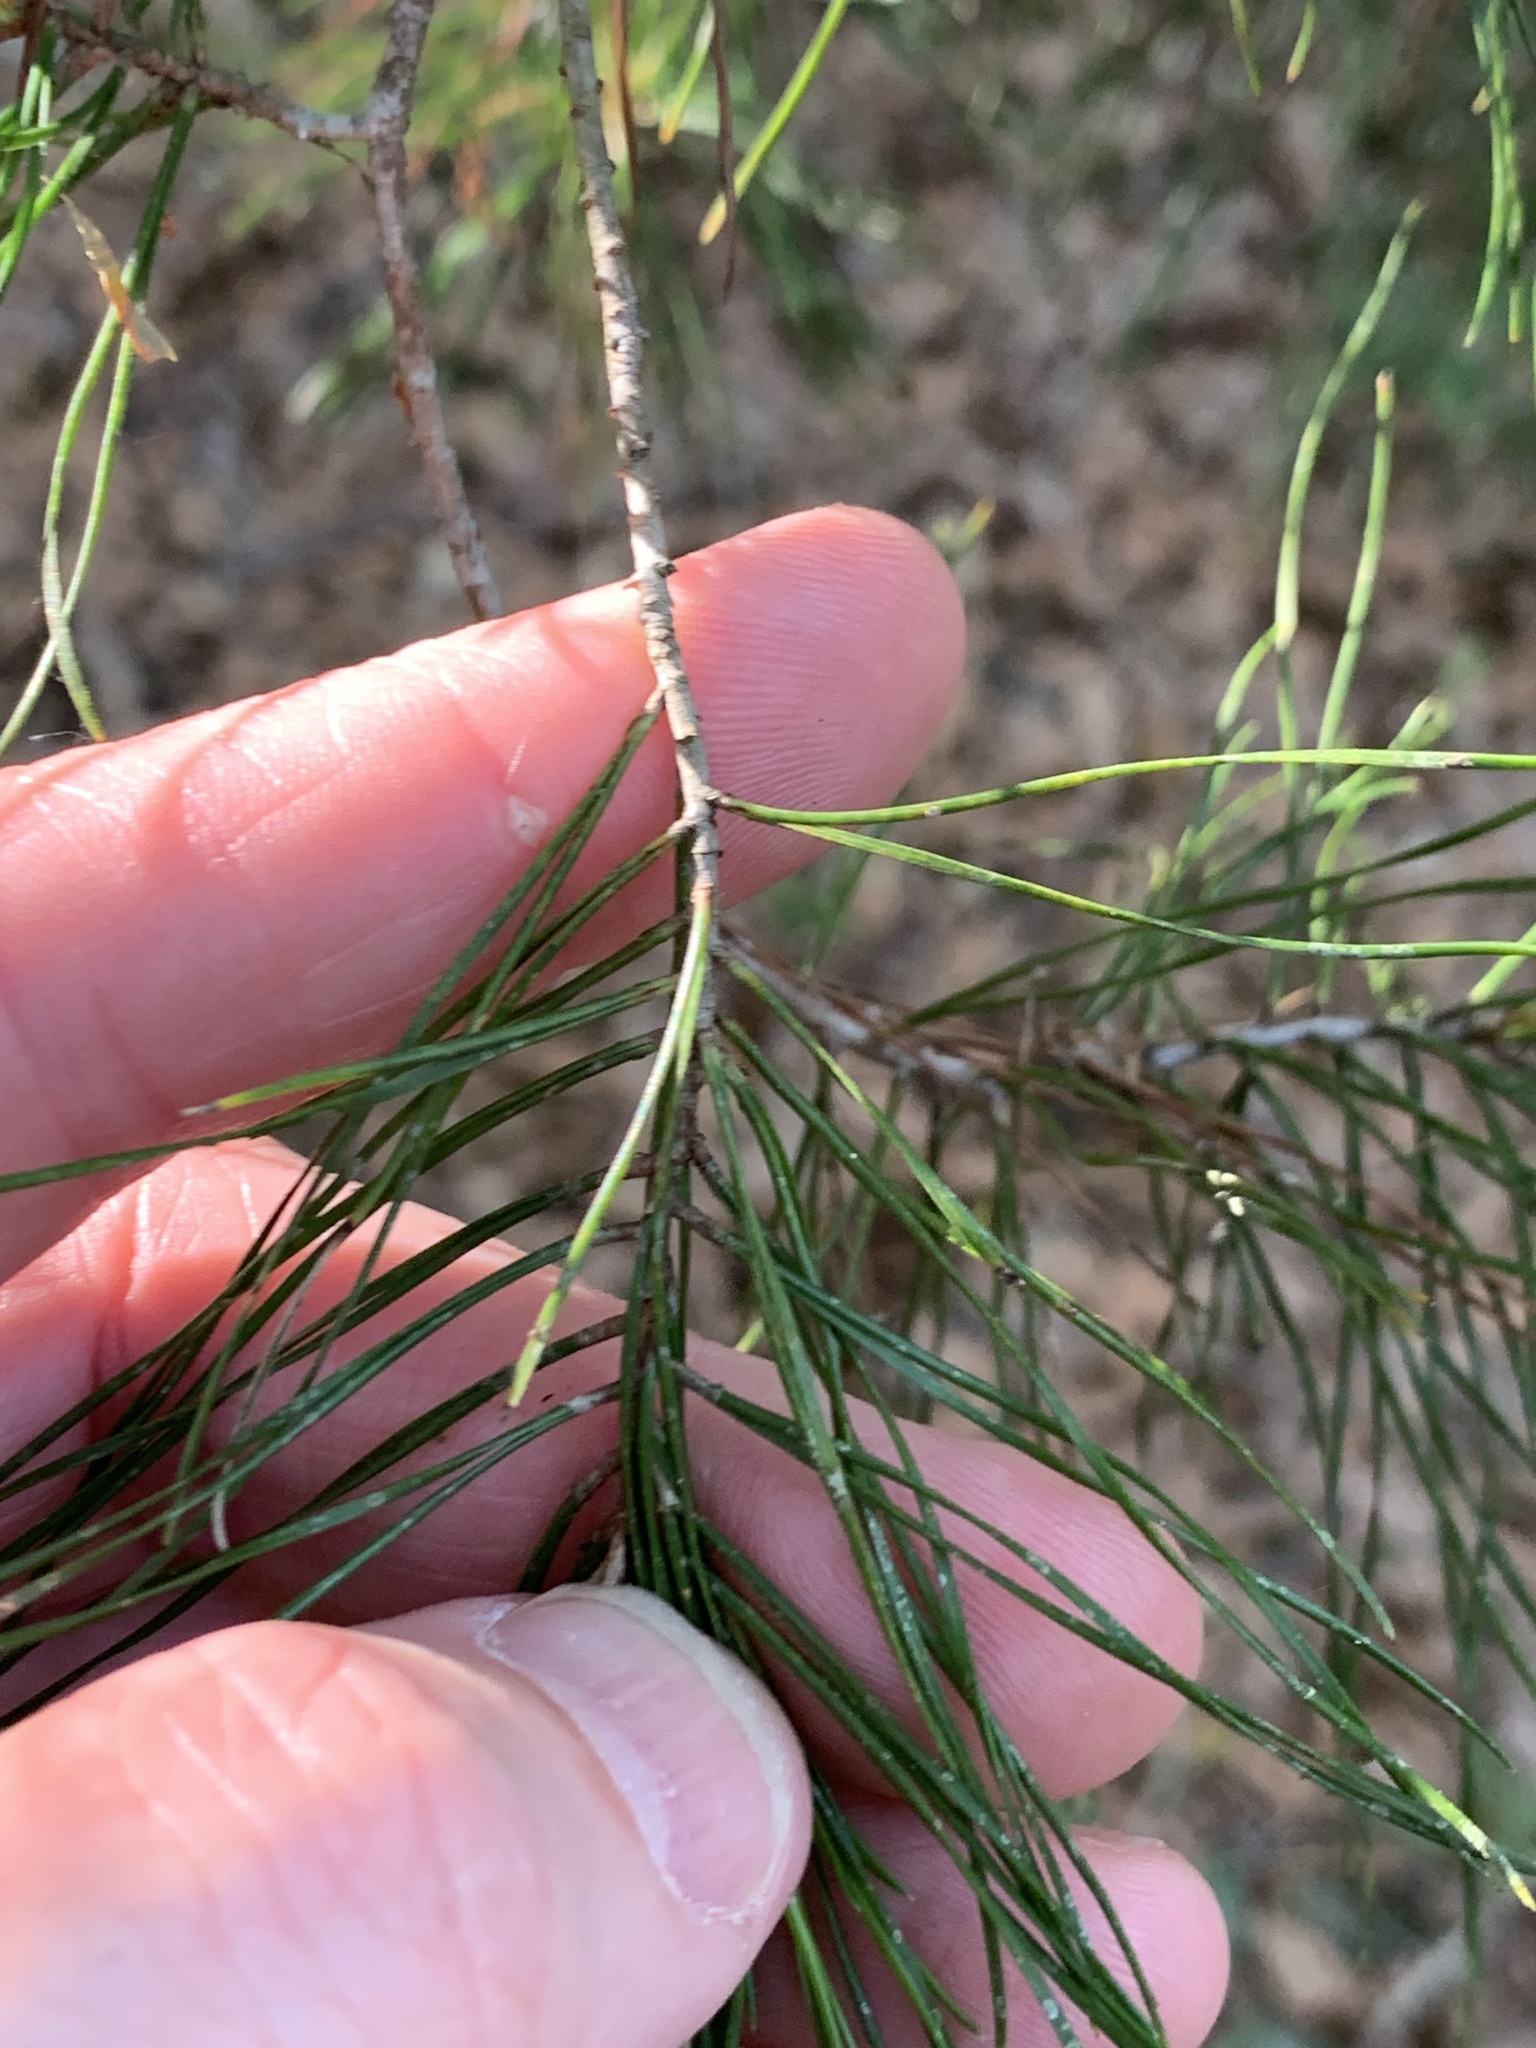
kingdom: Plantae
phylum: Tracheophyta
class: Pinopsida
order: Pinales
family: Pinaceae
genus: Pinus
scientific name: Pinus glabra
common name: Spruce pine
